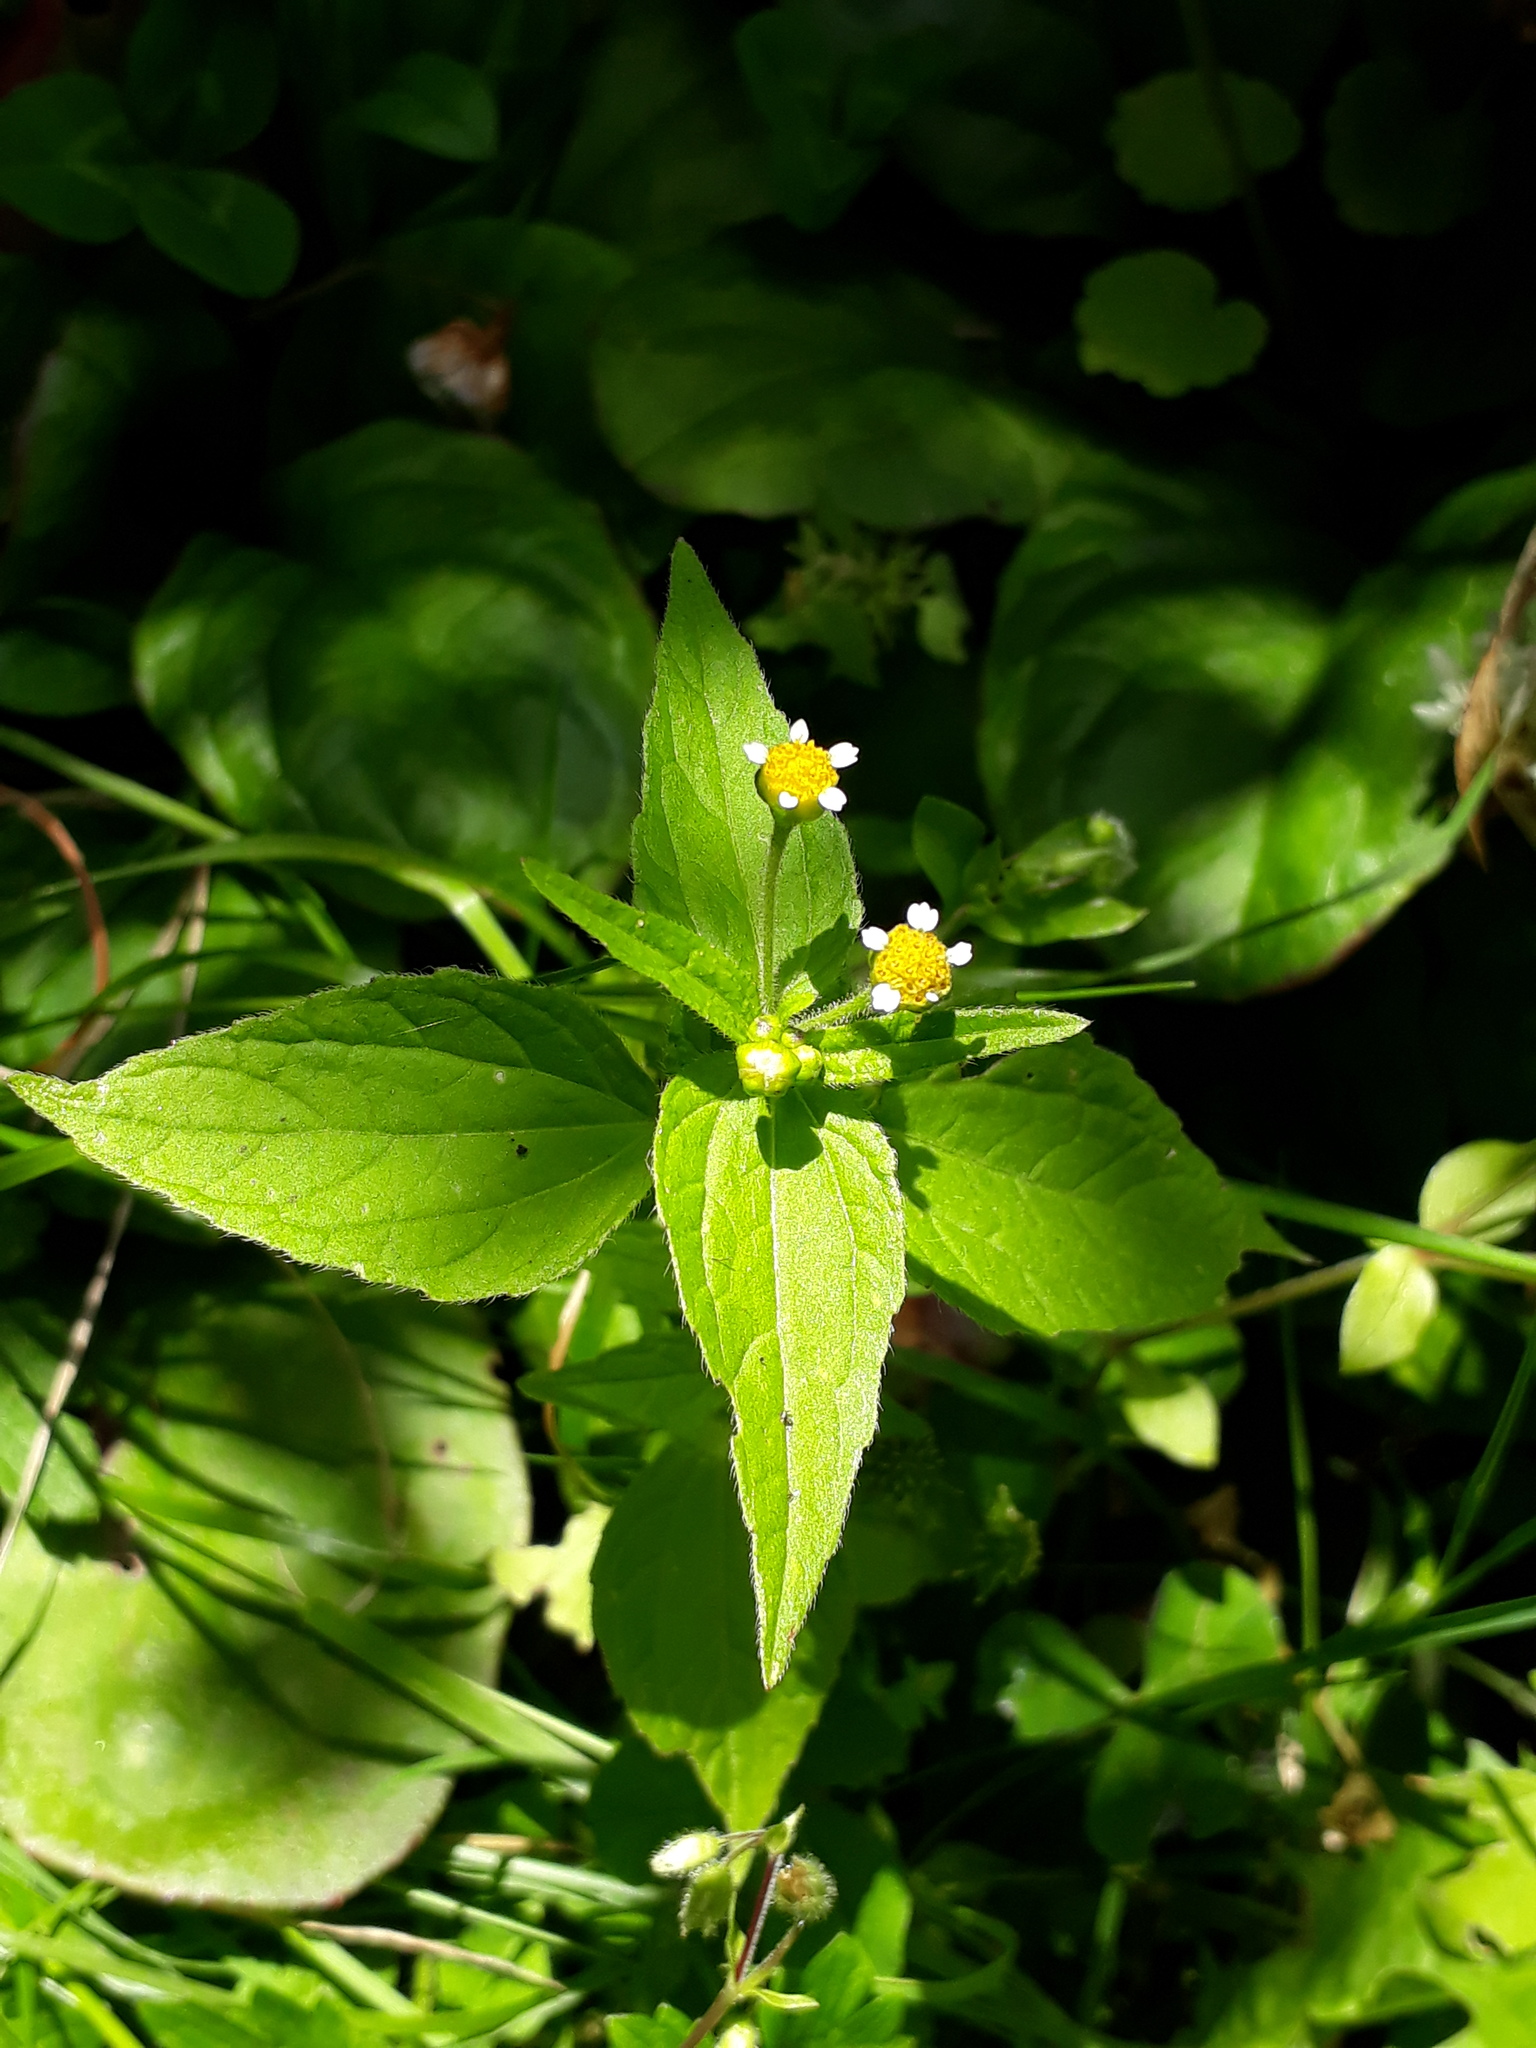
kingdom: Plantae
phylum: Tracheophyta
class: Magnoliopsida
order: Asterales
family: Asteraceae
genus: Galinsoga
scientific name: Galinsoga parviflora
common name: Gallant soldier
